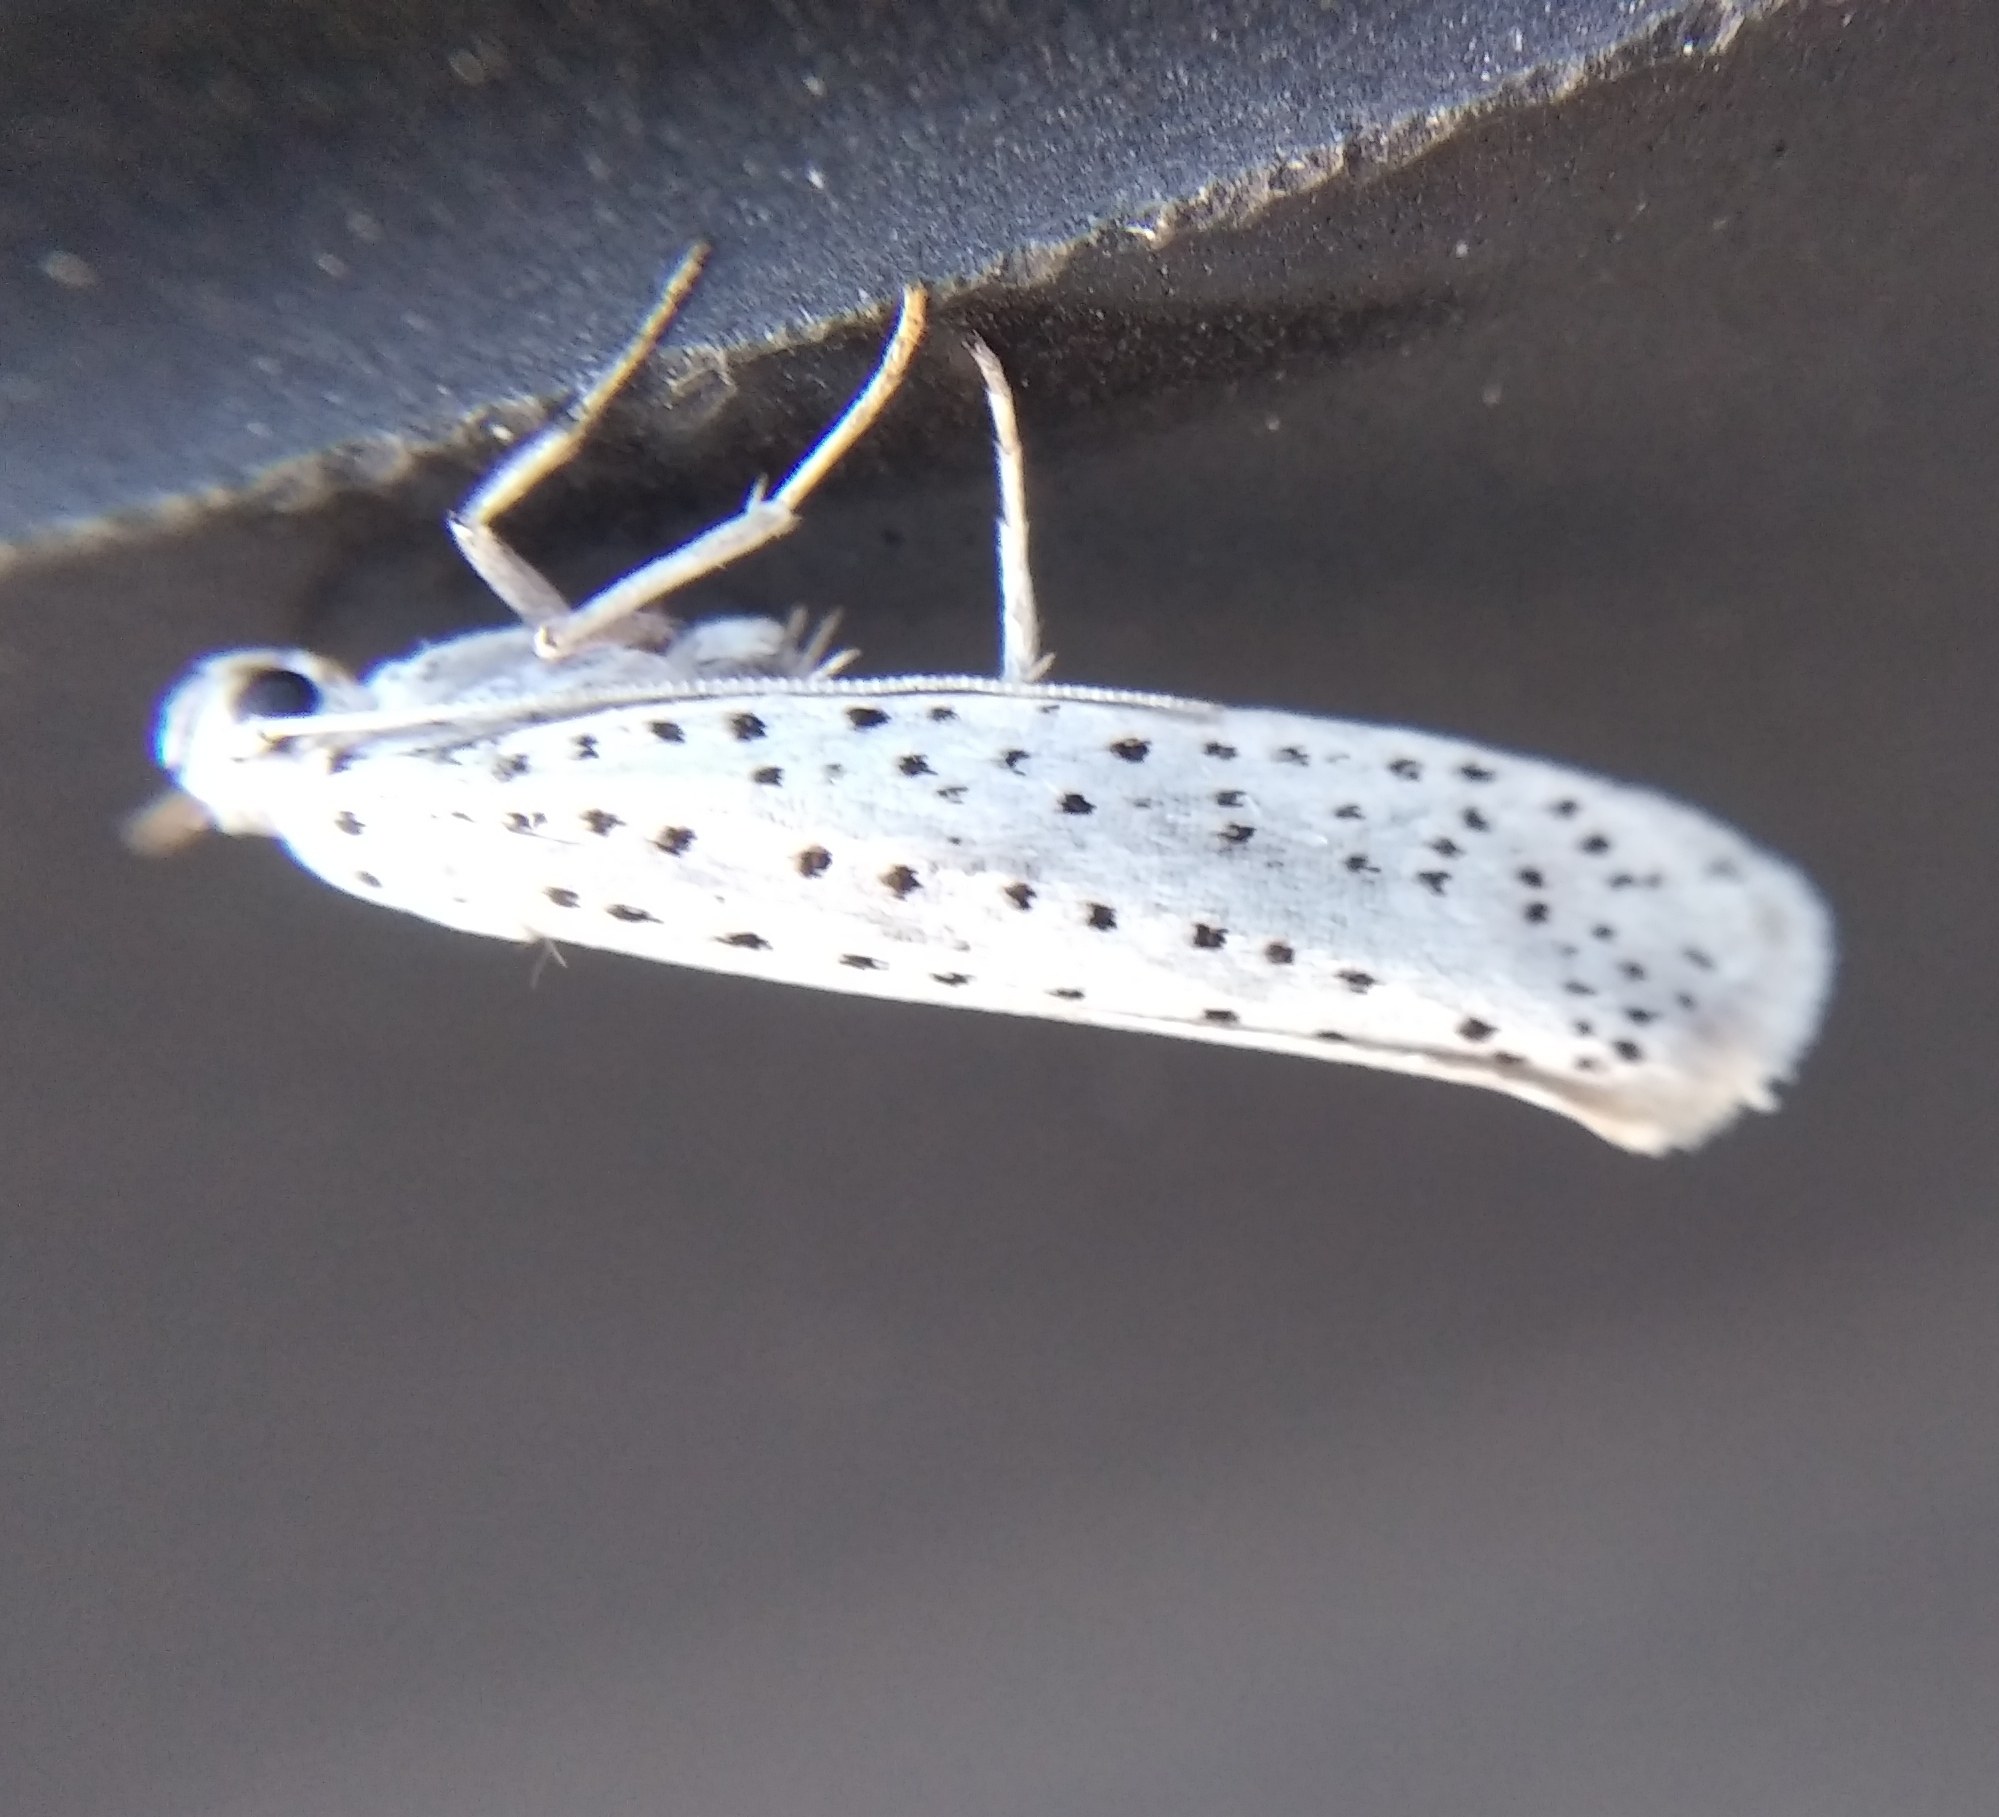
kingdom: Animalia
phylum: Arthropoda
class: Insecta
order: Lepidoptera
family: Yponomeutidae
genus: Yponomeuta
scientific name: Yponomeuta evonymella
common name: Bird-cherry ermine
